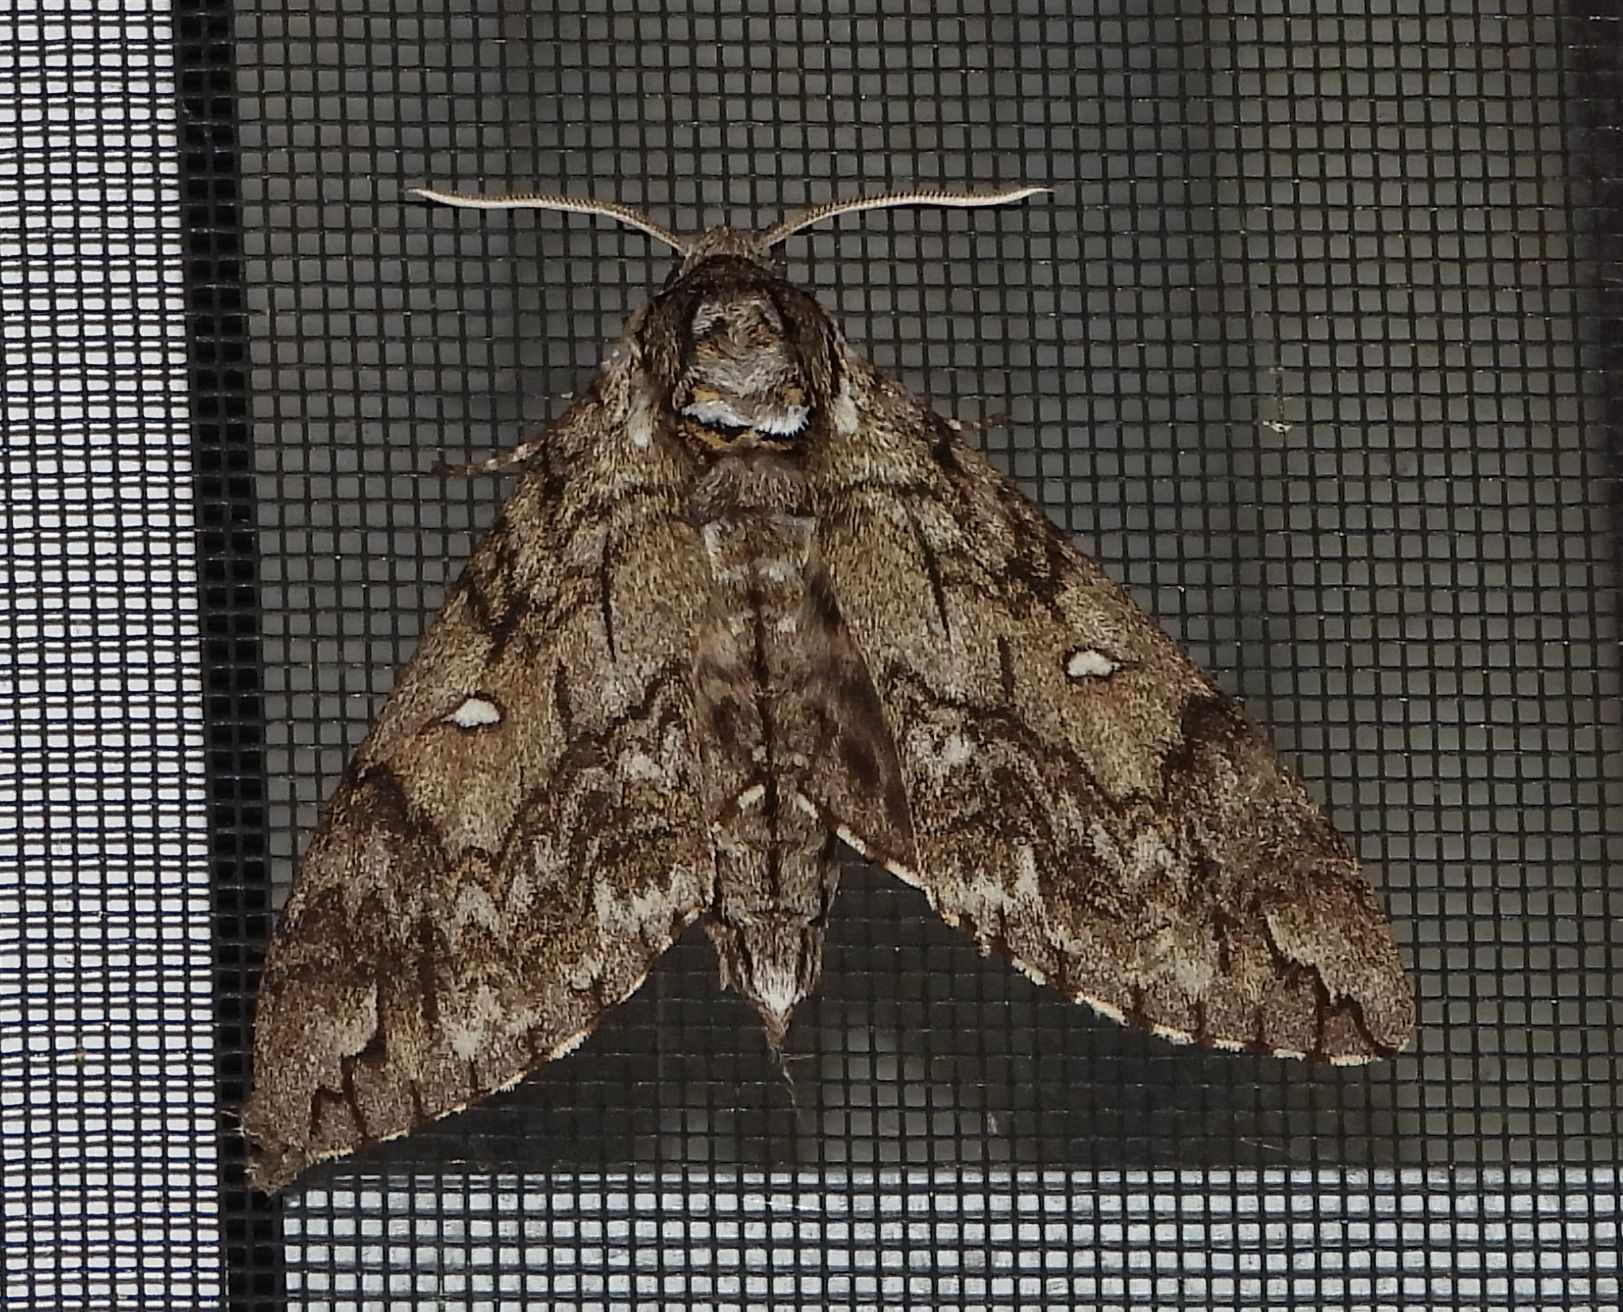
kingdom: Animalia
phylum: Arthropoda
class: Insecta
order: Lepidoptera
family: Sphingidae
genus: Ceratomia
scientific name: Ceratomia undulosa
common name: Waved sphinx
